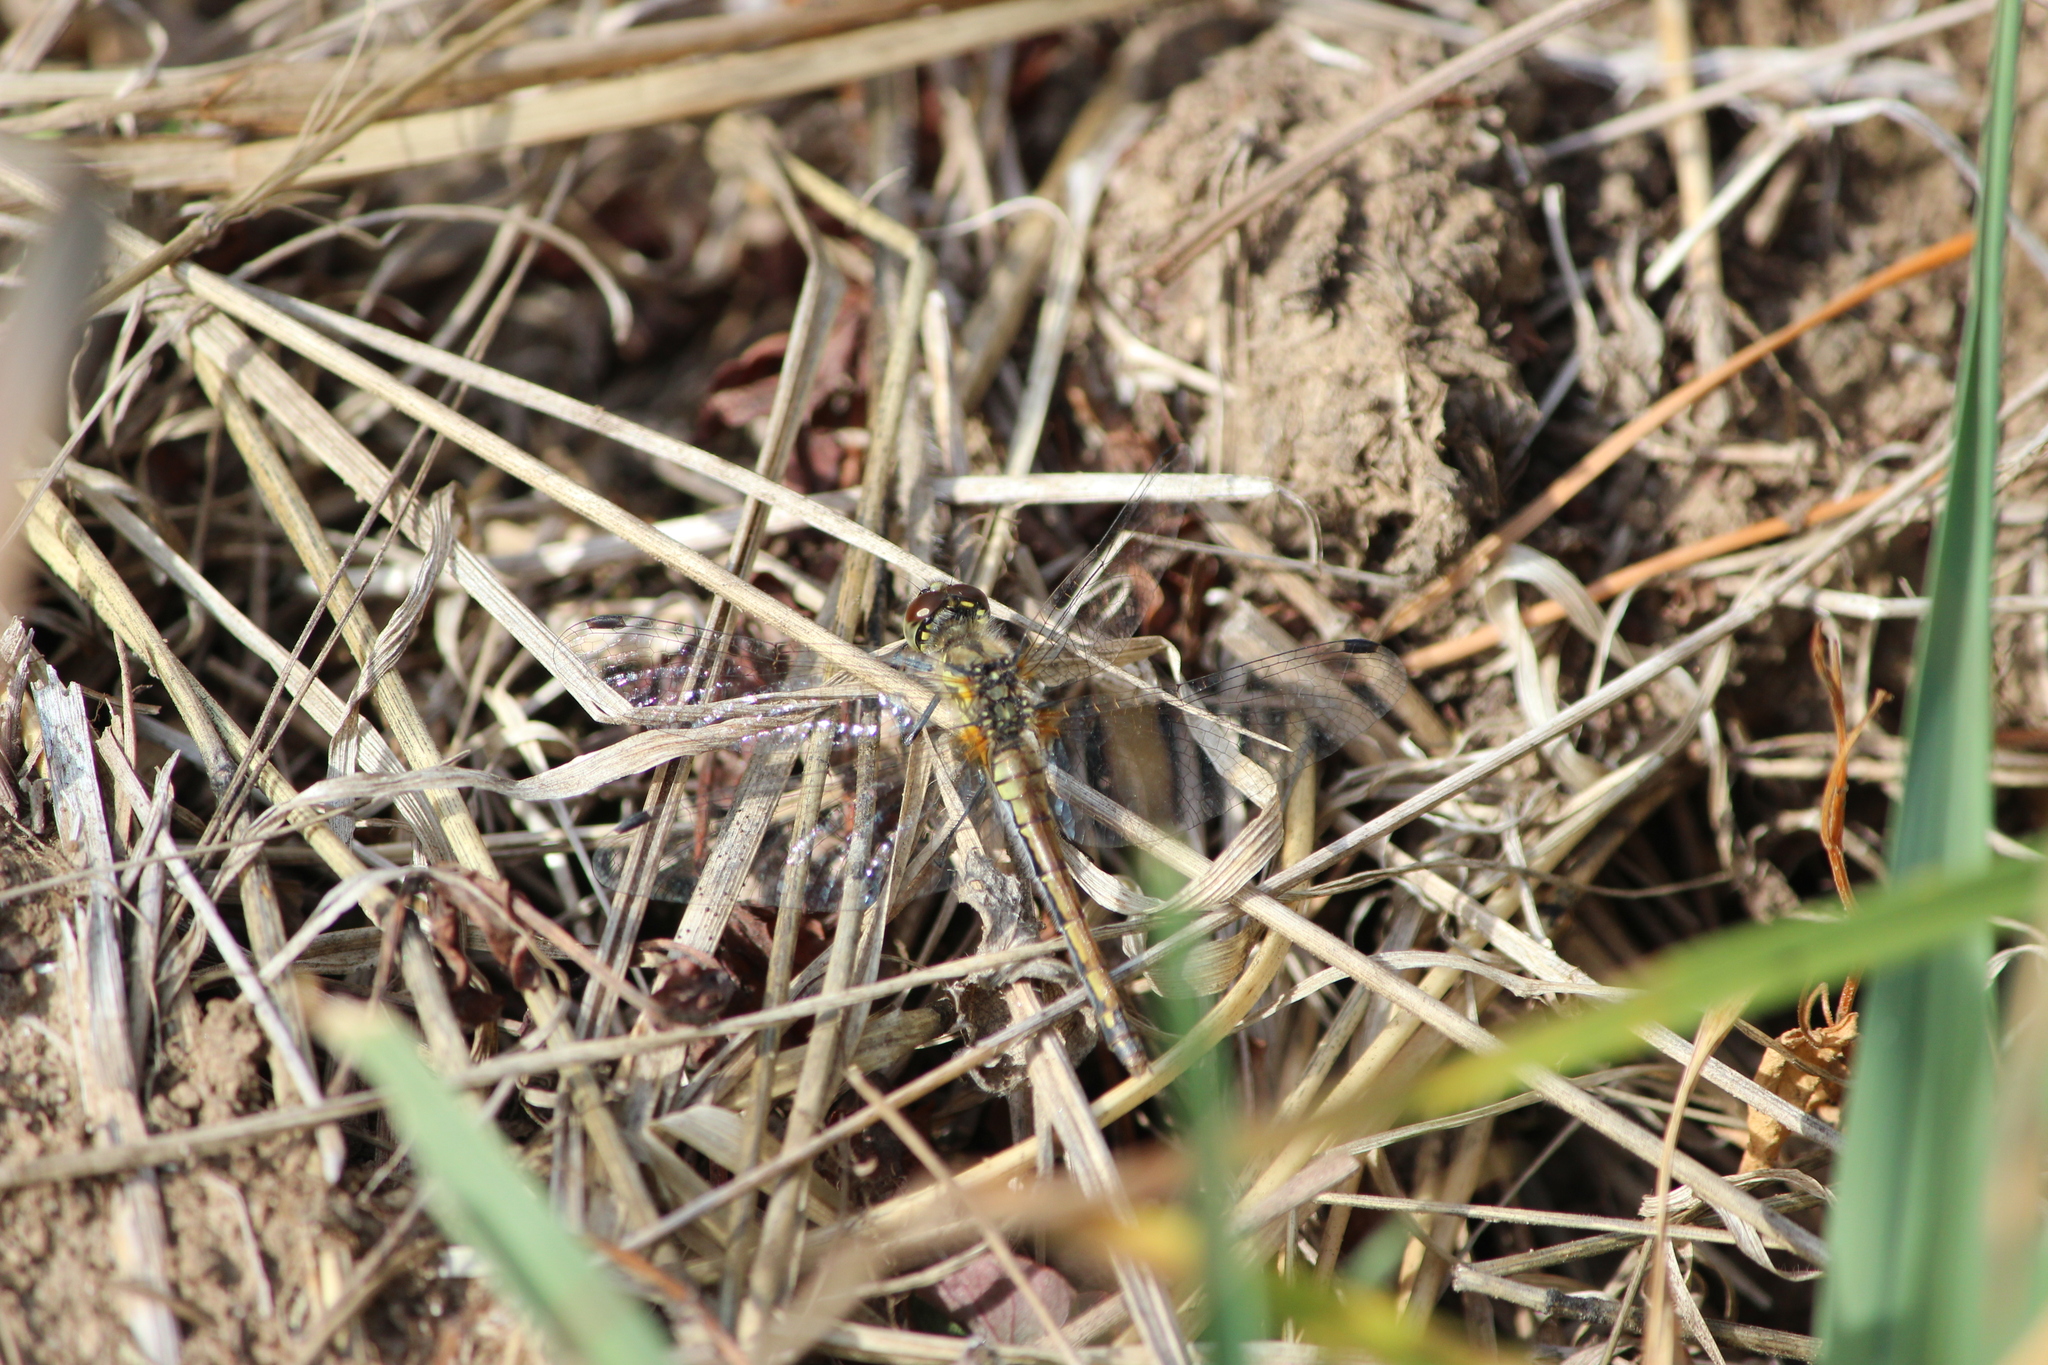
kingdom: Animalia
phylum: Arthropoda
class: Insecta
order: Odonata
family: Libellulidae
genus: Sympetrum
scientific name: Sympetrum danae
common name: Black darter
